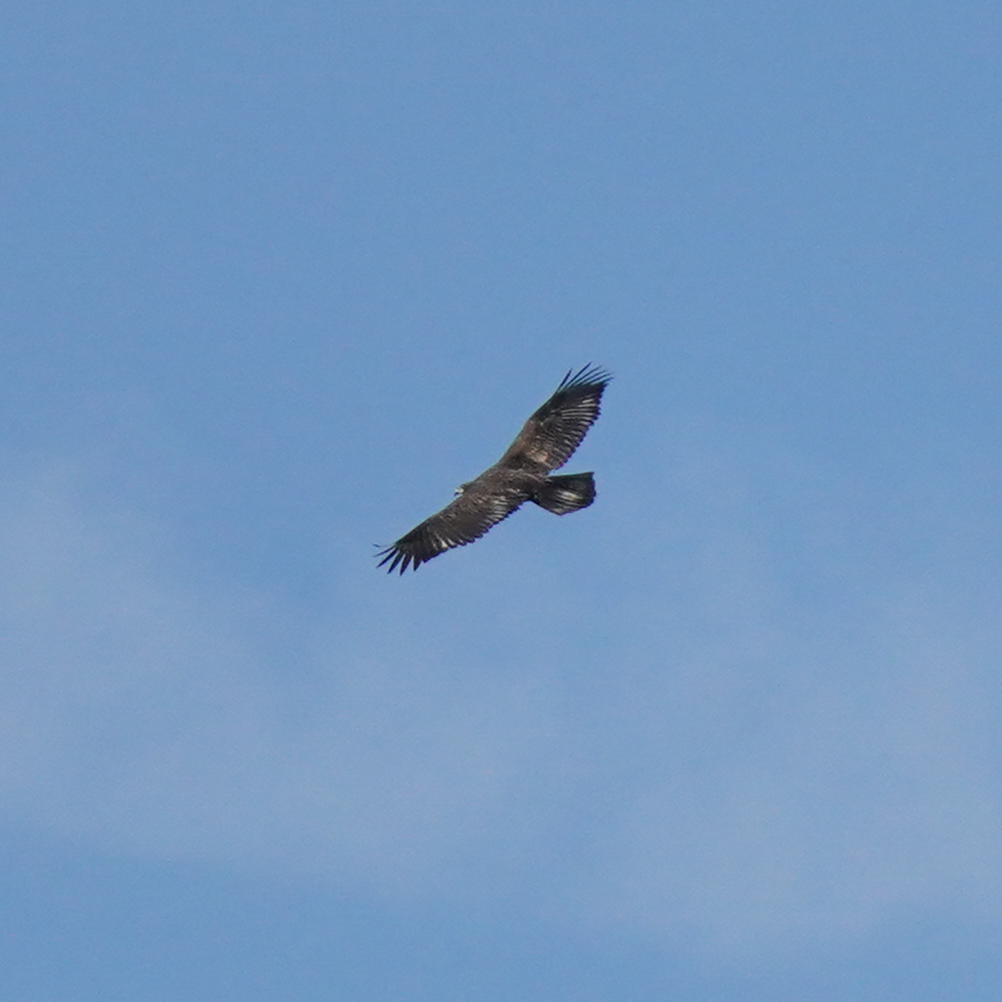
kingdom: Animalia
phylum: Chordata
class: Aves
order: Accipitriformes
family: Accipitridae
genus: Haliaeetus
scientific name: Haliaeetus leucocephalus
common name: Bald eagle
